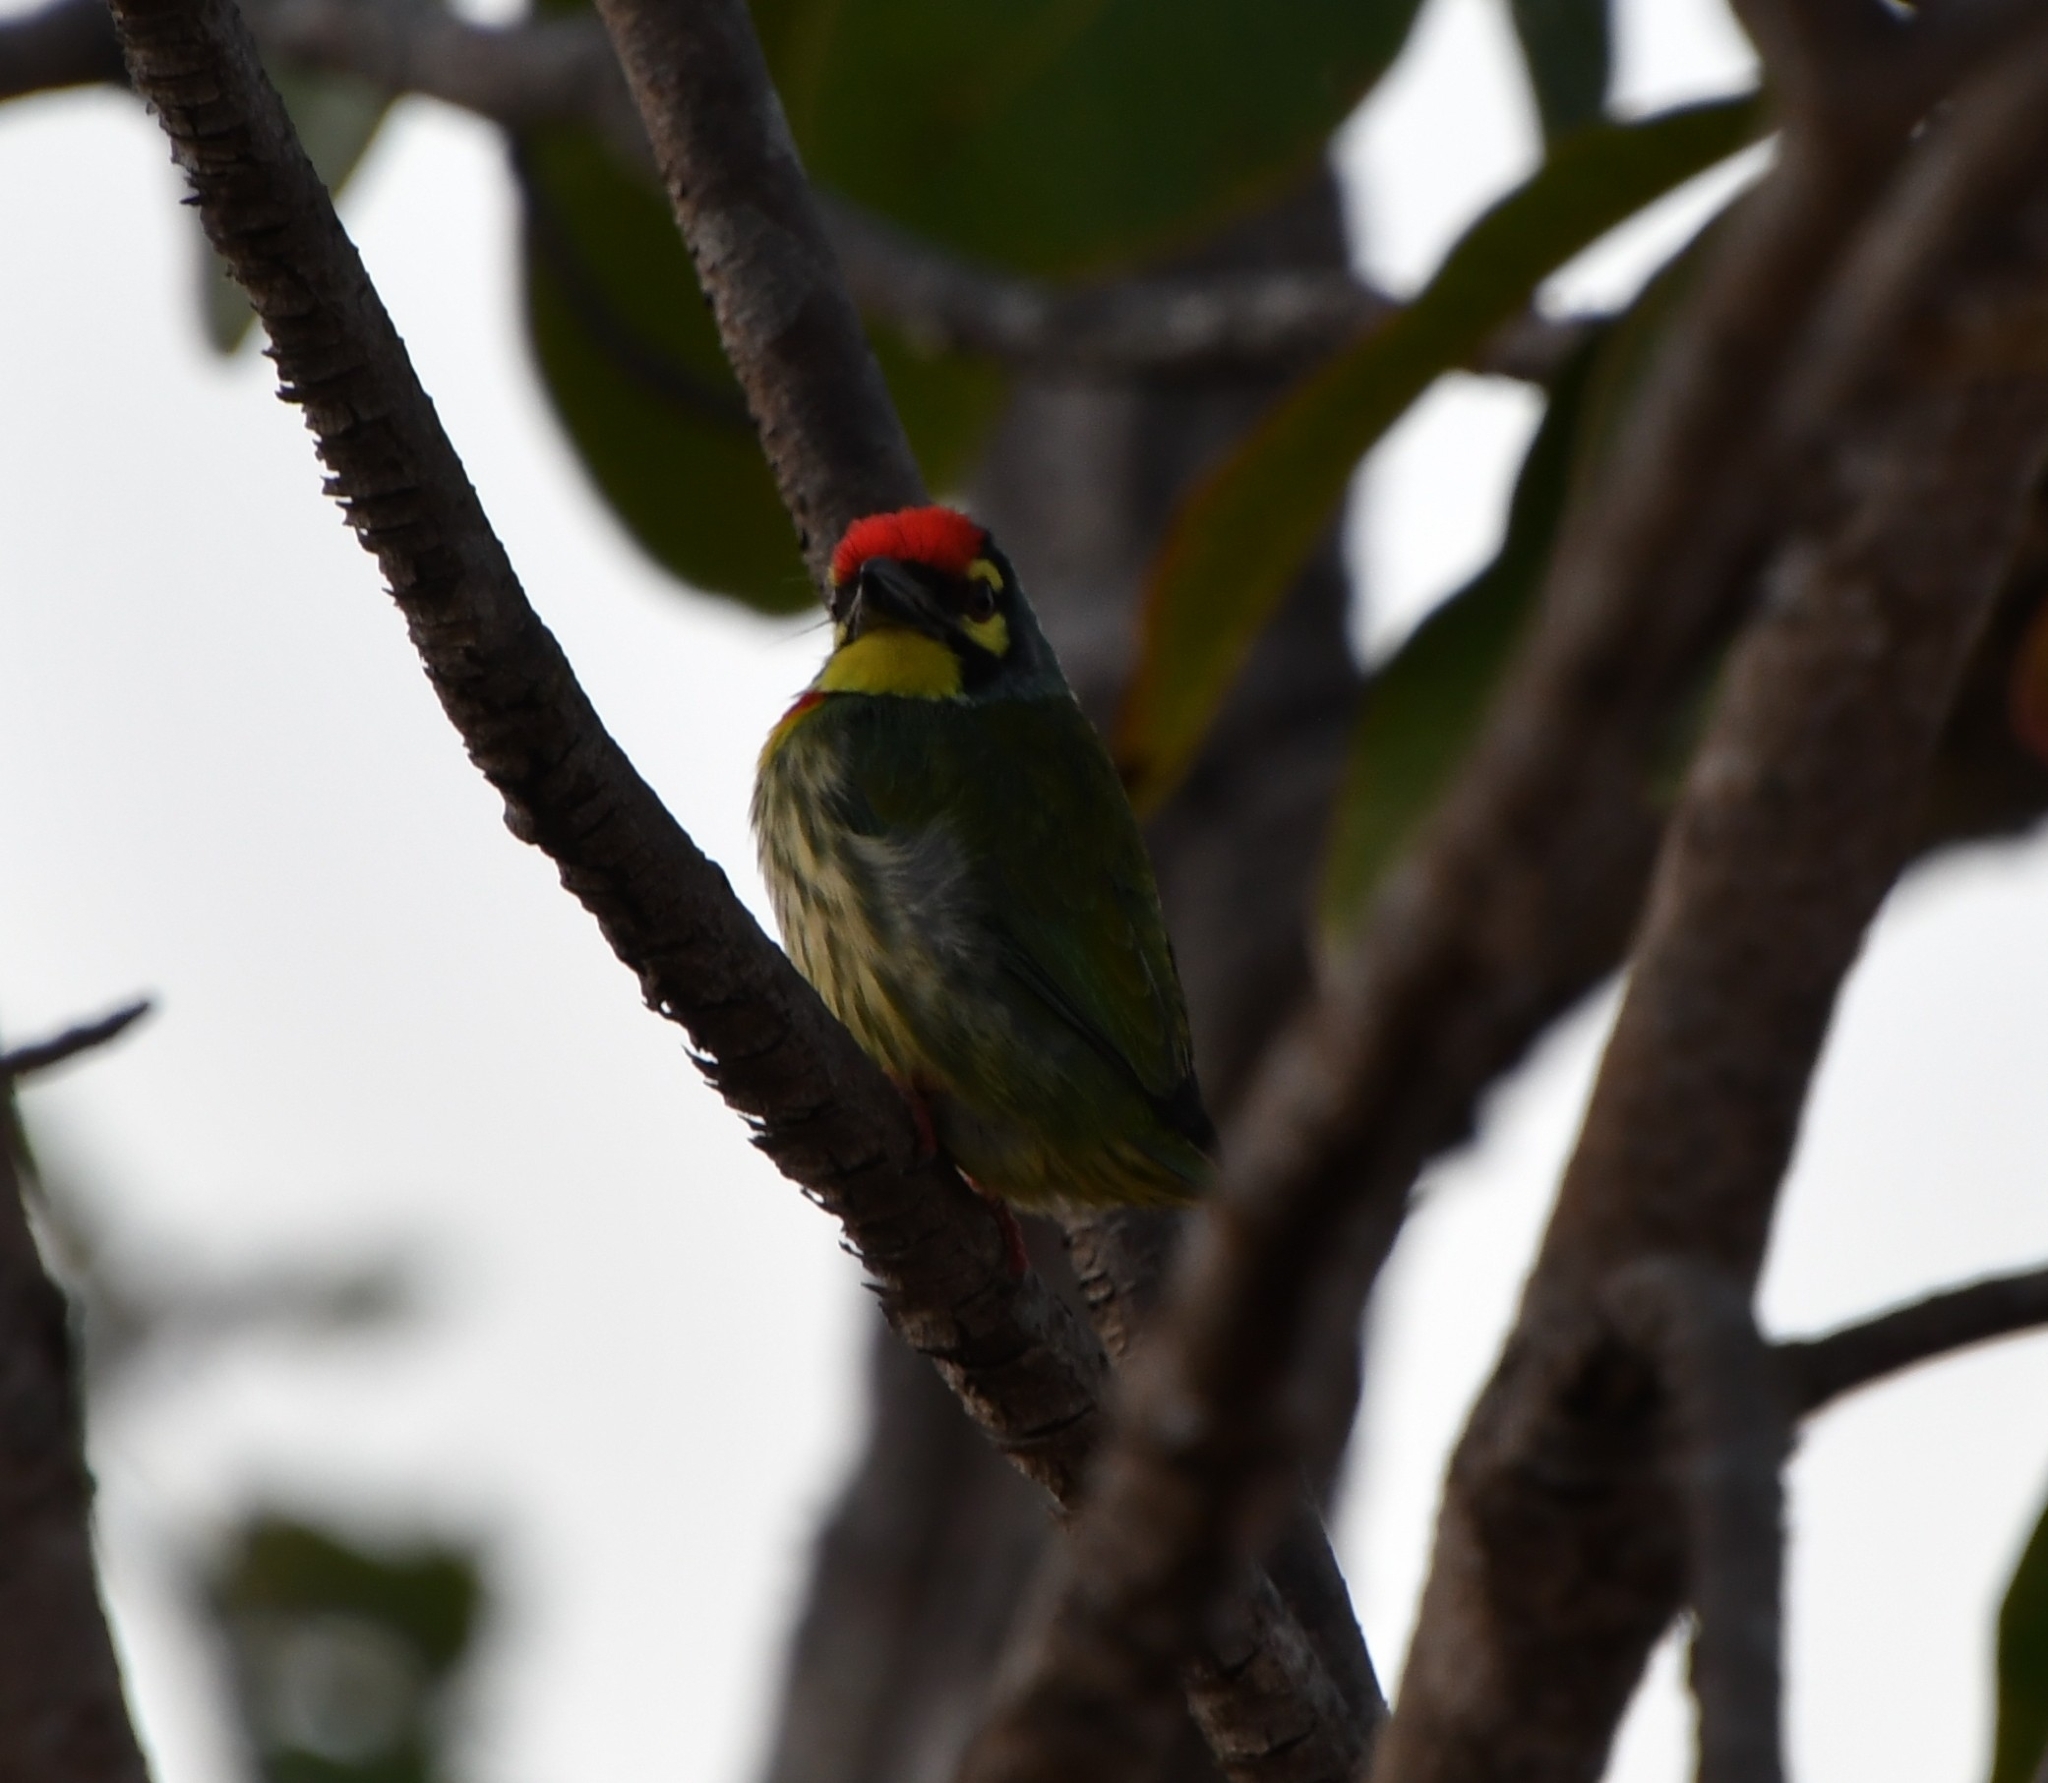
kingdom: Animalia
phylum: Chordata
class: Aves
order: Piciformes
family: Megalaimidae
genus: Psilopogon
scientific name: Psilopogon haemacephalus
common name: Coppersmith barbet
